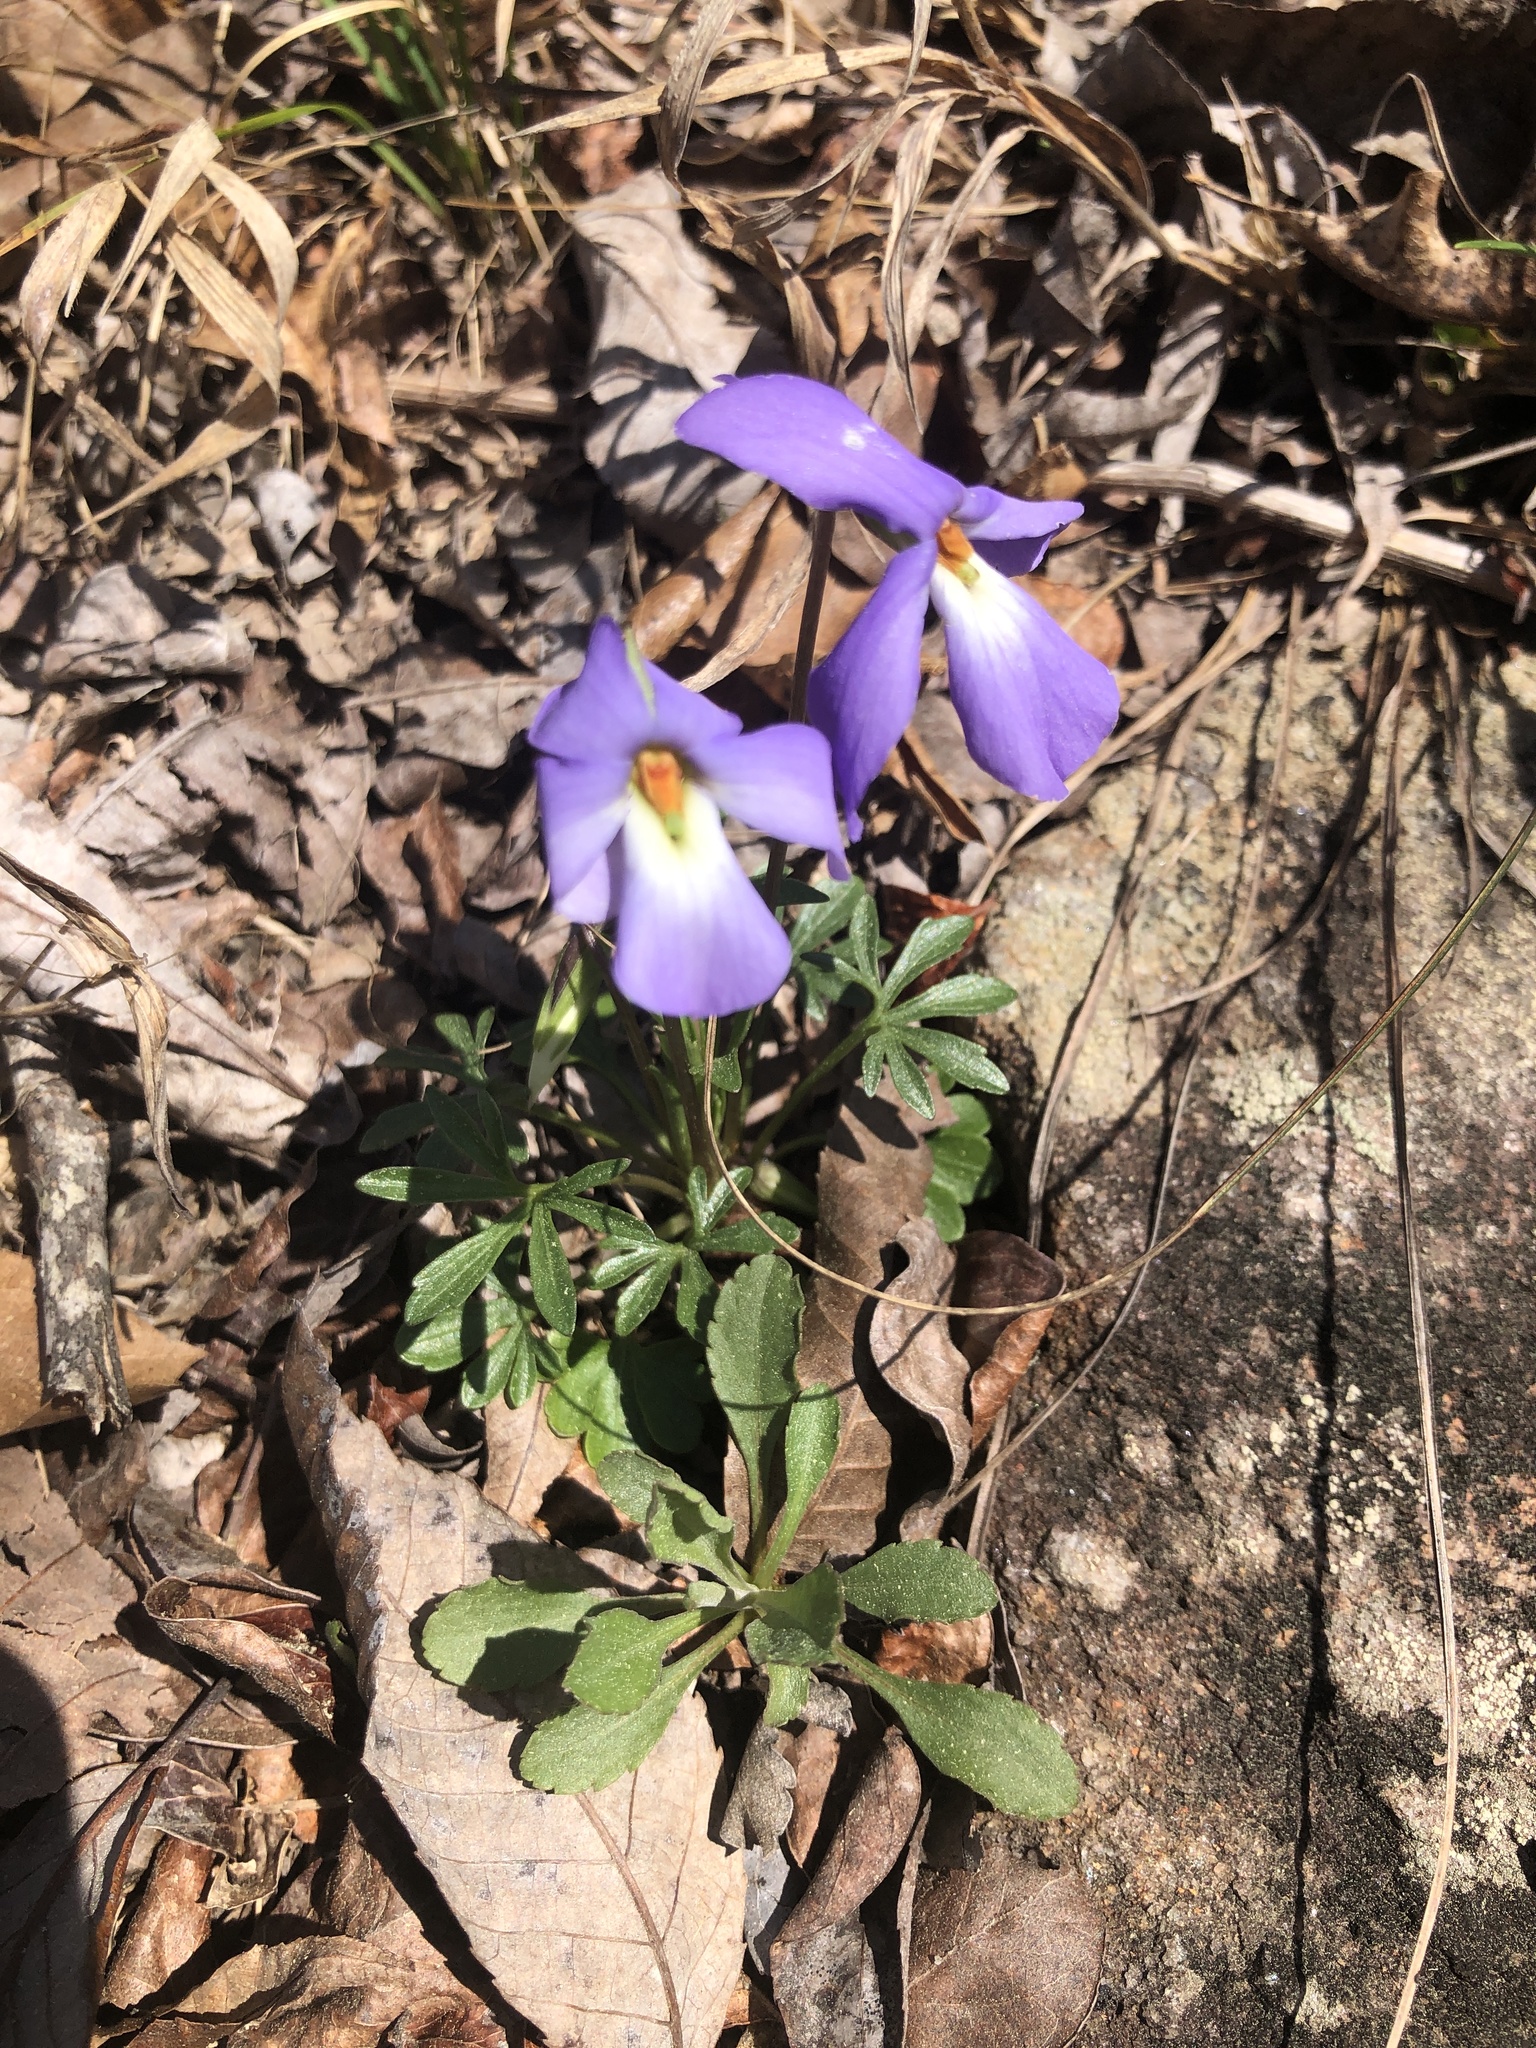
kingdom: Plantae
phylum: Tracheophyta
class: Magnoliopsida
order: Malpighiales
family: Violaceae
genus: Viola
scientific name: Viola pedata
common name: Pansy violet
